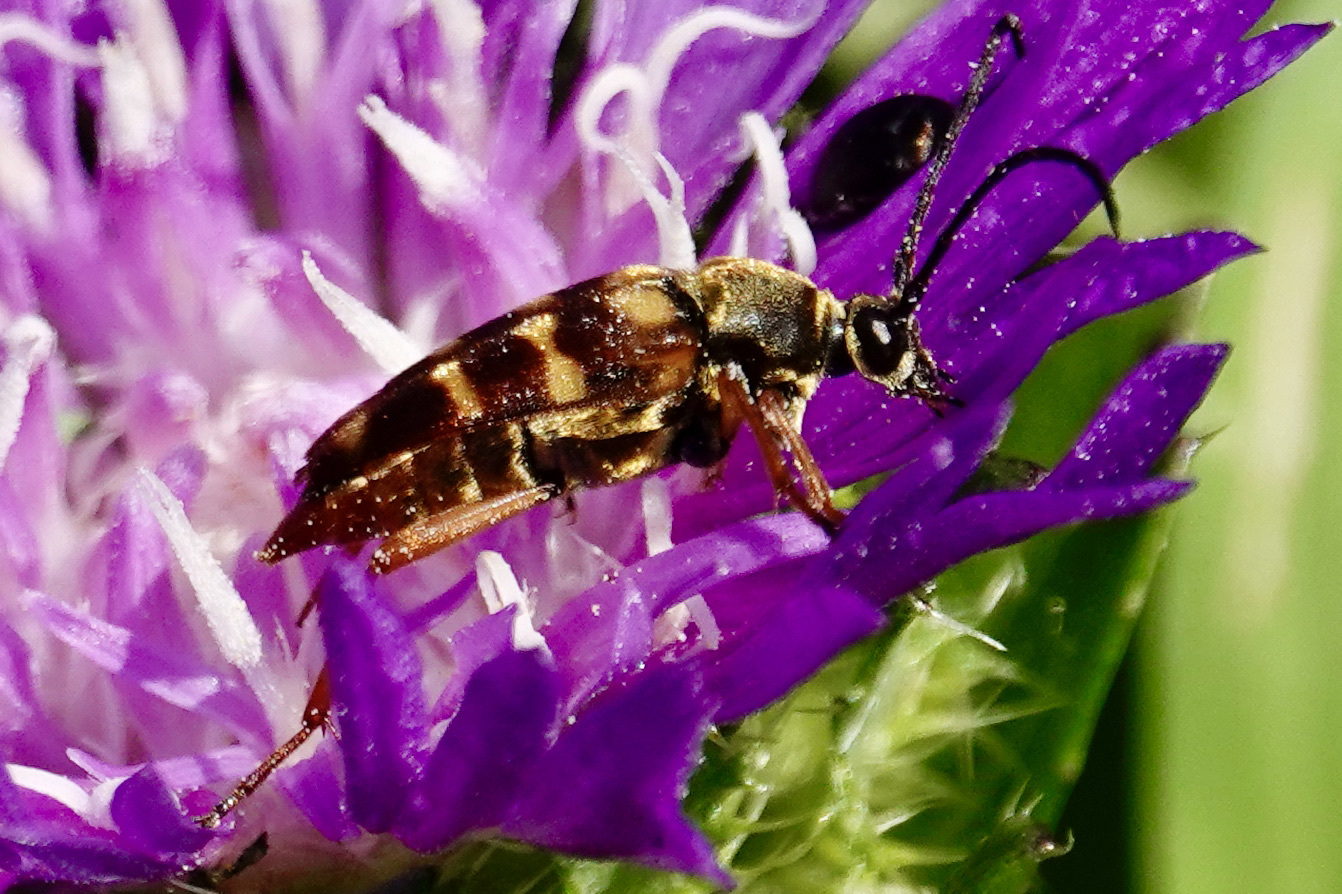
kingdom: Animalia
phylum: Arthropoda
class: Insecta
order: Coleoptera
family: Cerambycidae
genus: Typocerus
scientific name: Typocerus velutinus
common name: Banded longhorn beetle
